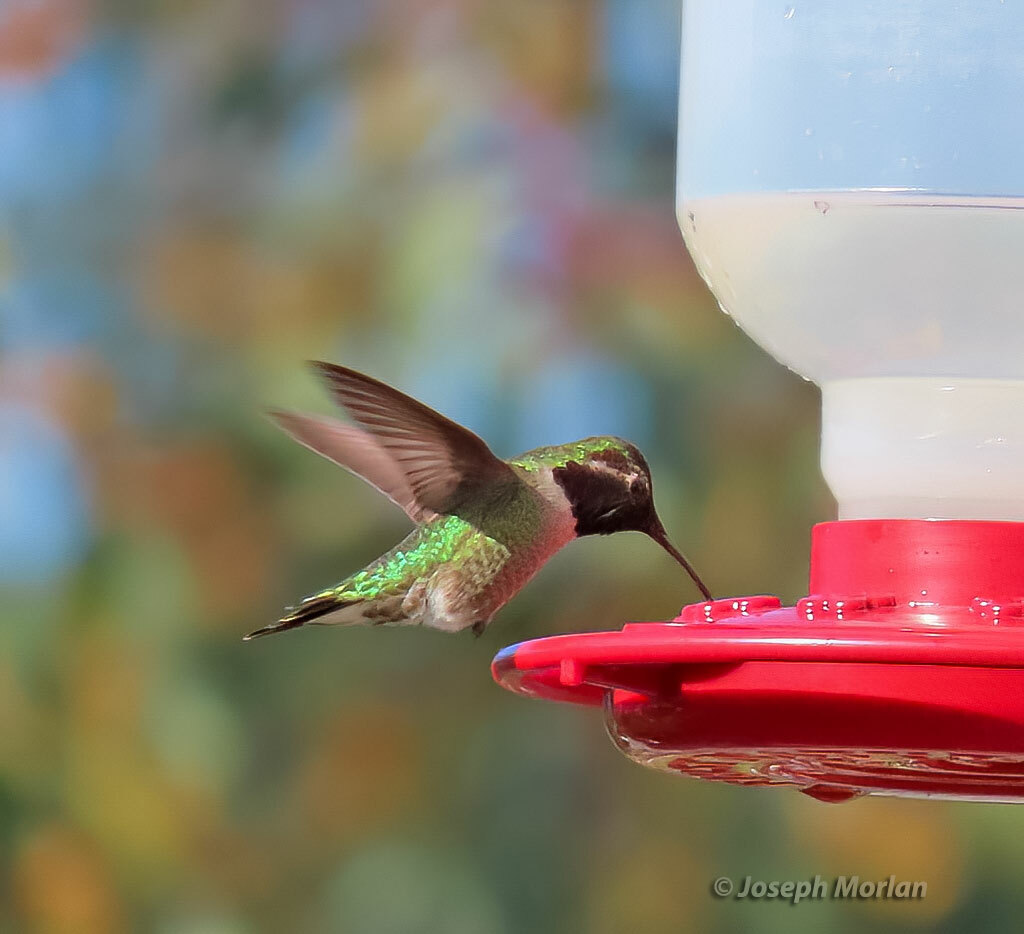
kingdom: Animalia
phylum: Chordata
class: Aves
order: Apodiformes
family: Trochilidae
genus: Calypte
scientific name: Calypte anna
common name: Anna's hummingbird
